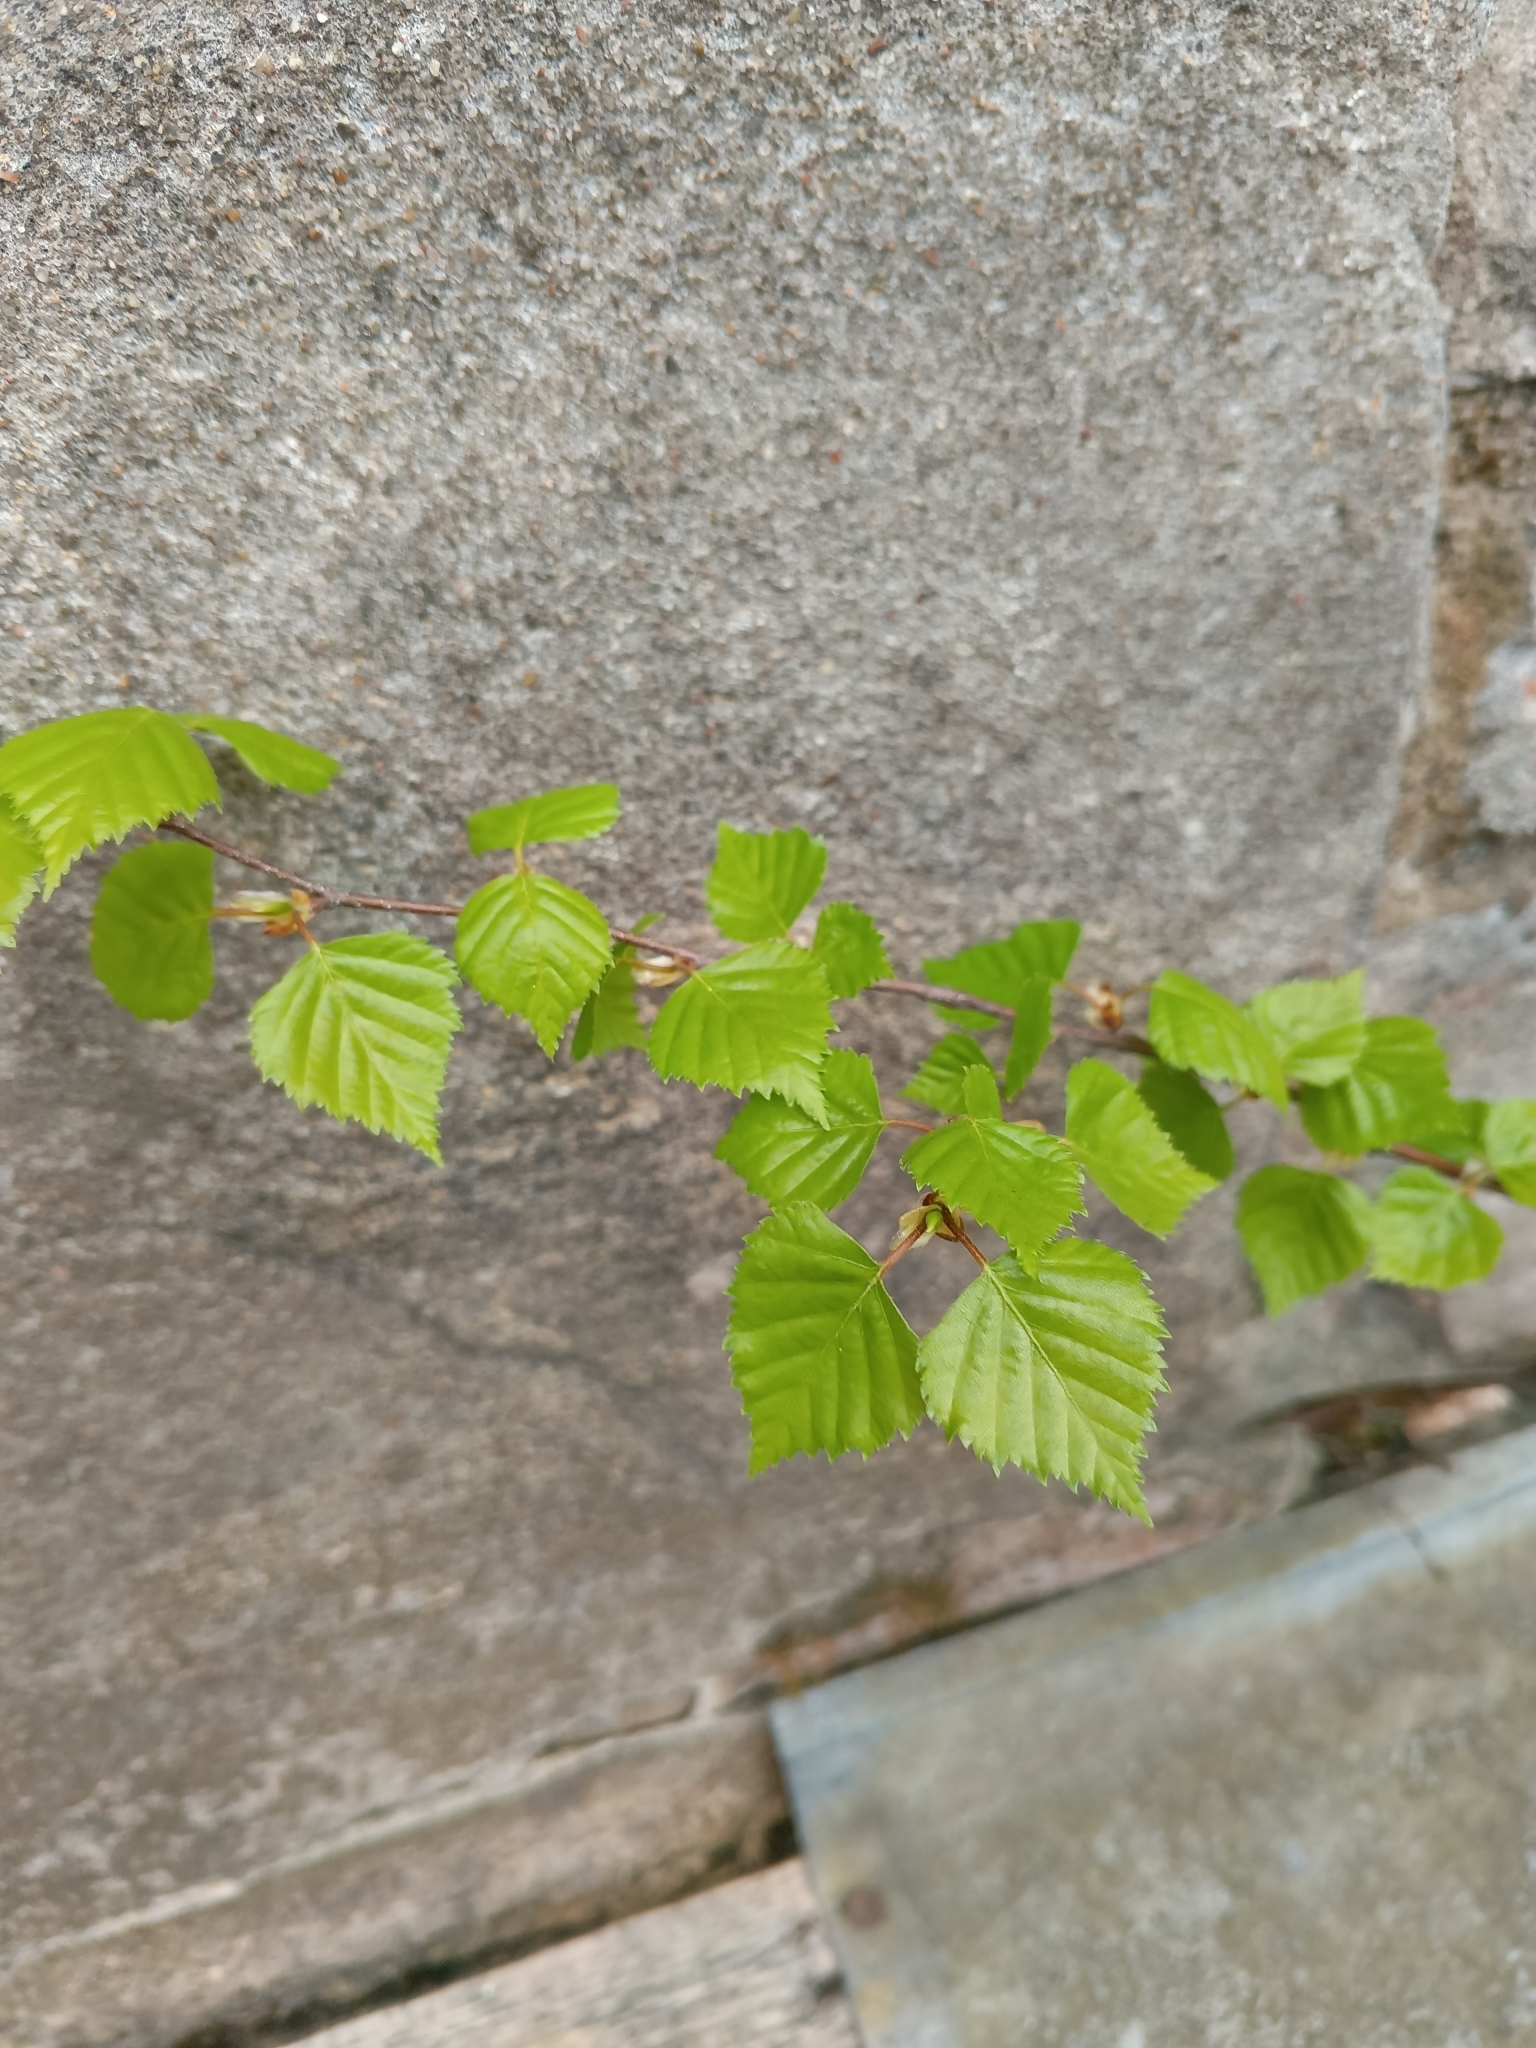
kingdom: Plantae
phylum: Tracheophyta
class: Magnoliopsida
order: Fagales
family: Betulaceae
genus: Betula
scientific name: Betula pendula
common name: Silver birch
